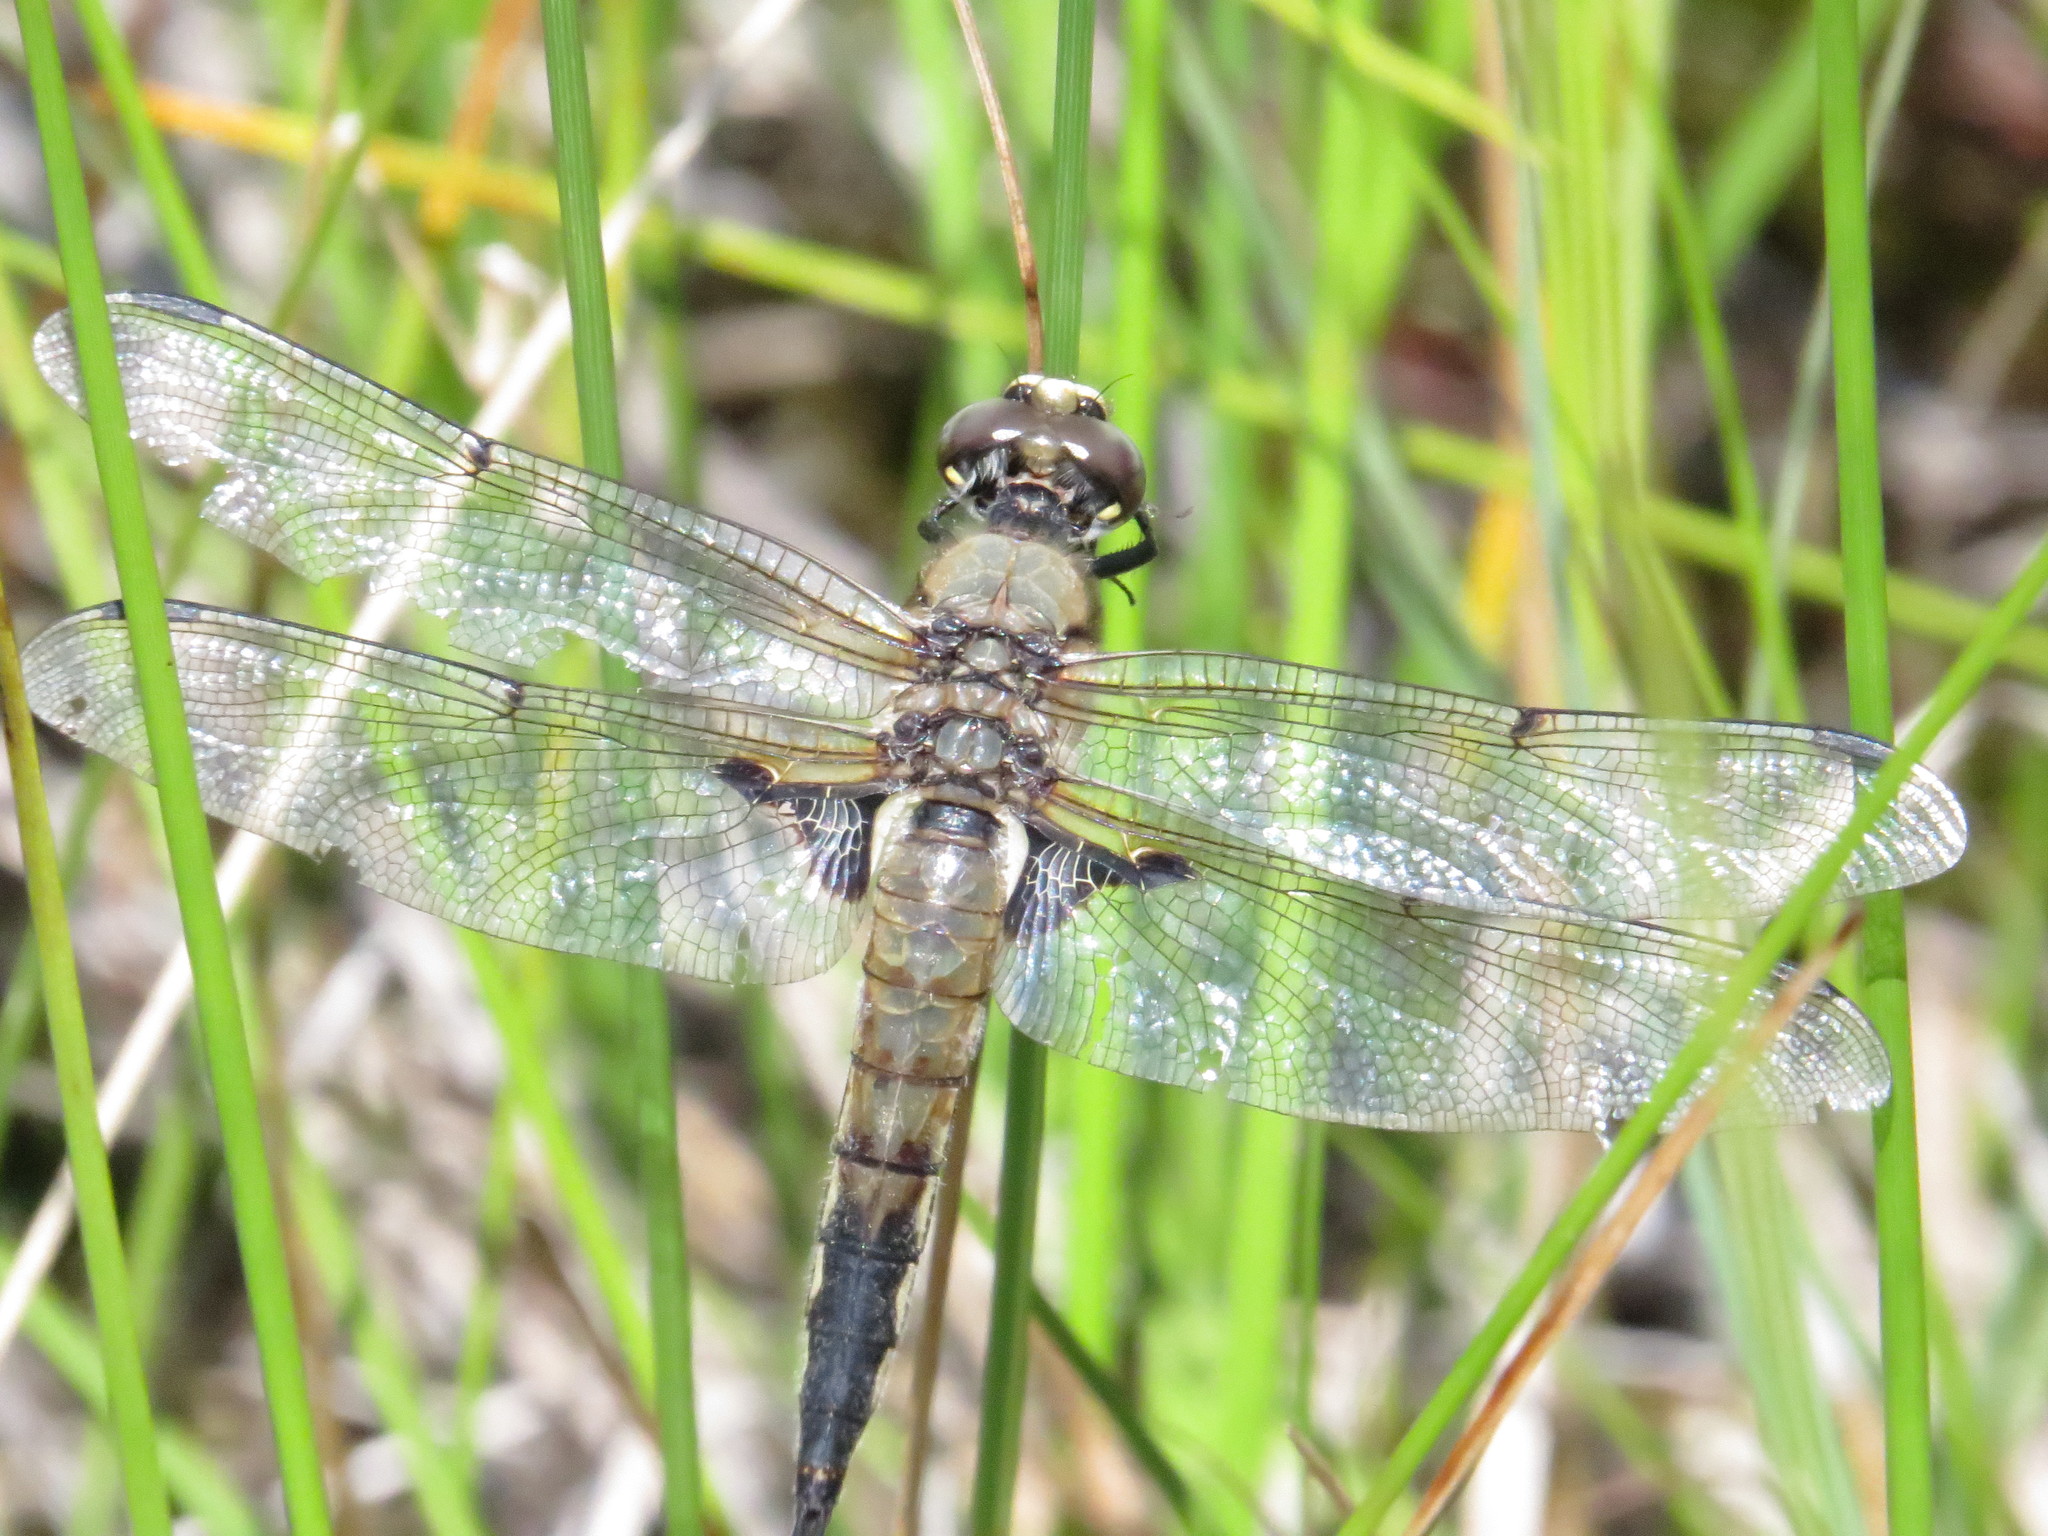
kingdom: Animalia
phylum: Arthropoda
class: Insecta
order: Odonata
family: Libellulidae
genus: Libellula
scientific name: Libellula quadrimaculata
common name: Four-spotted chaser
